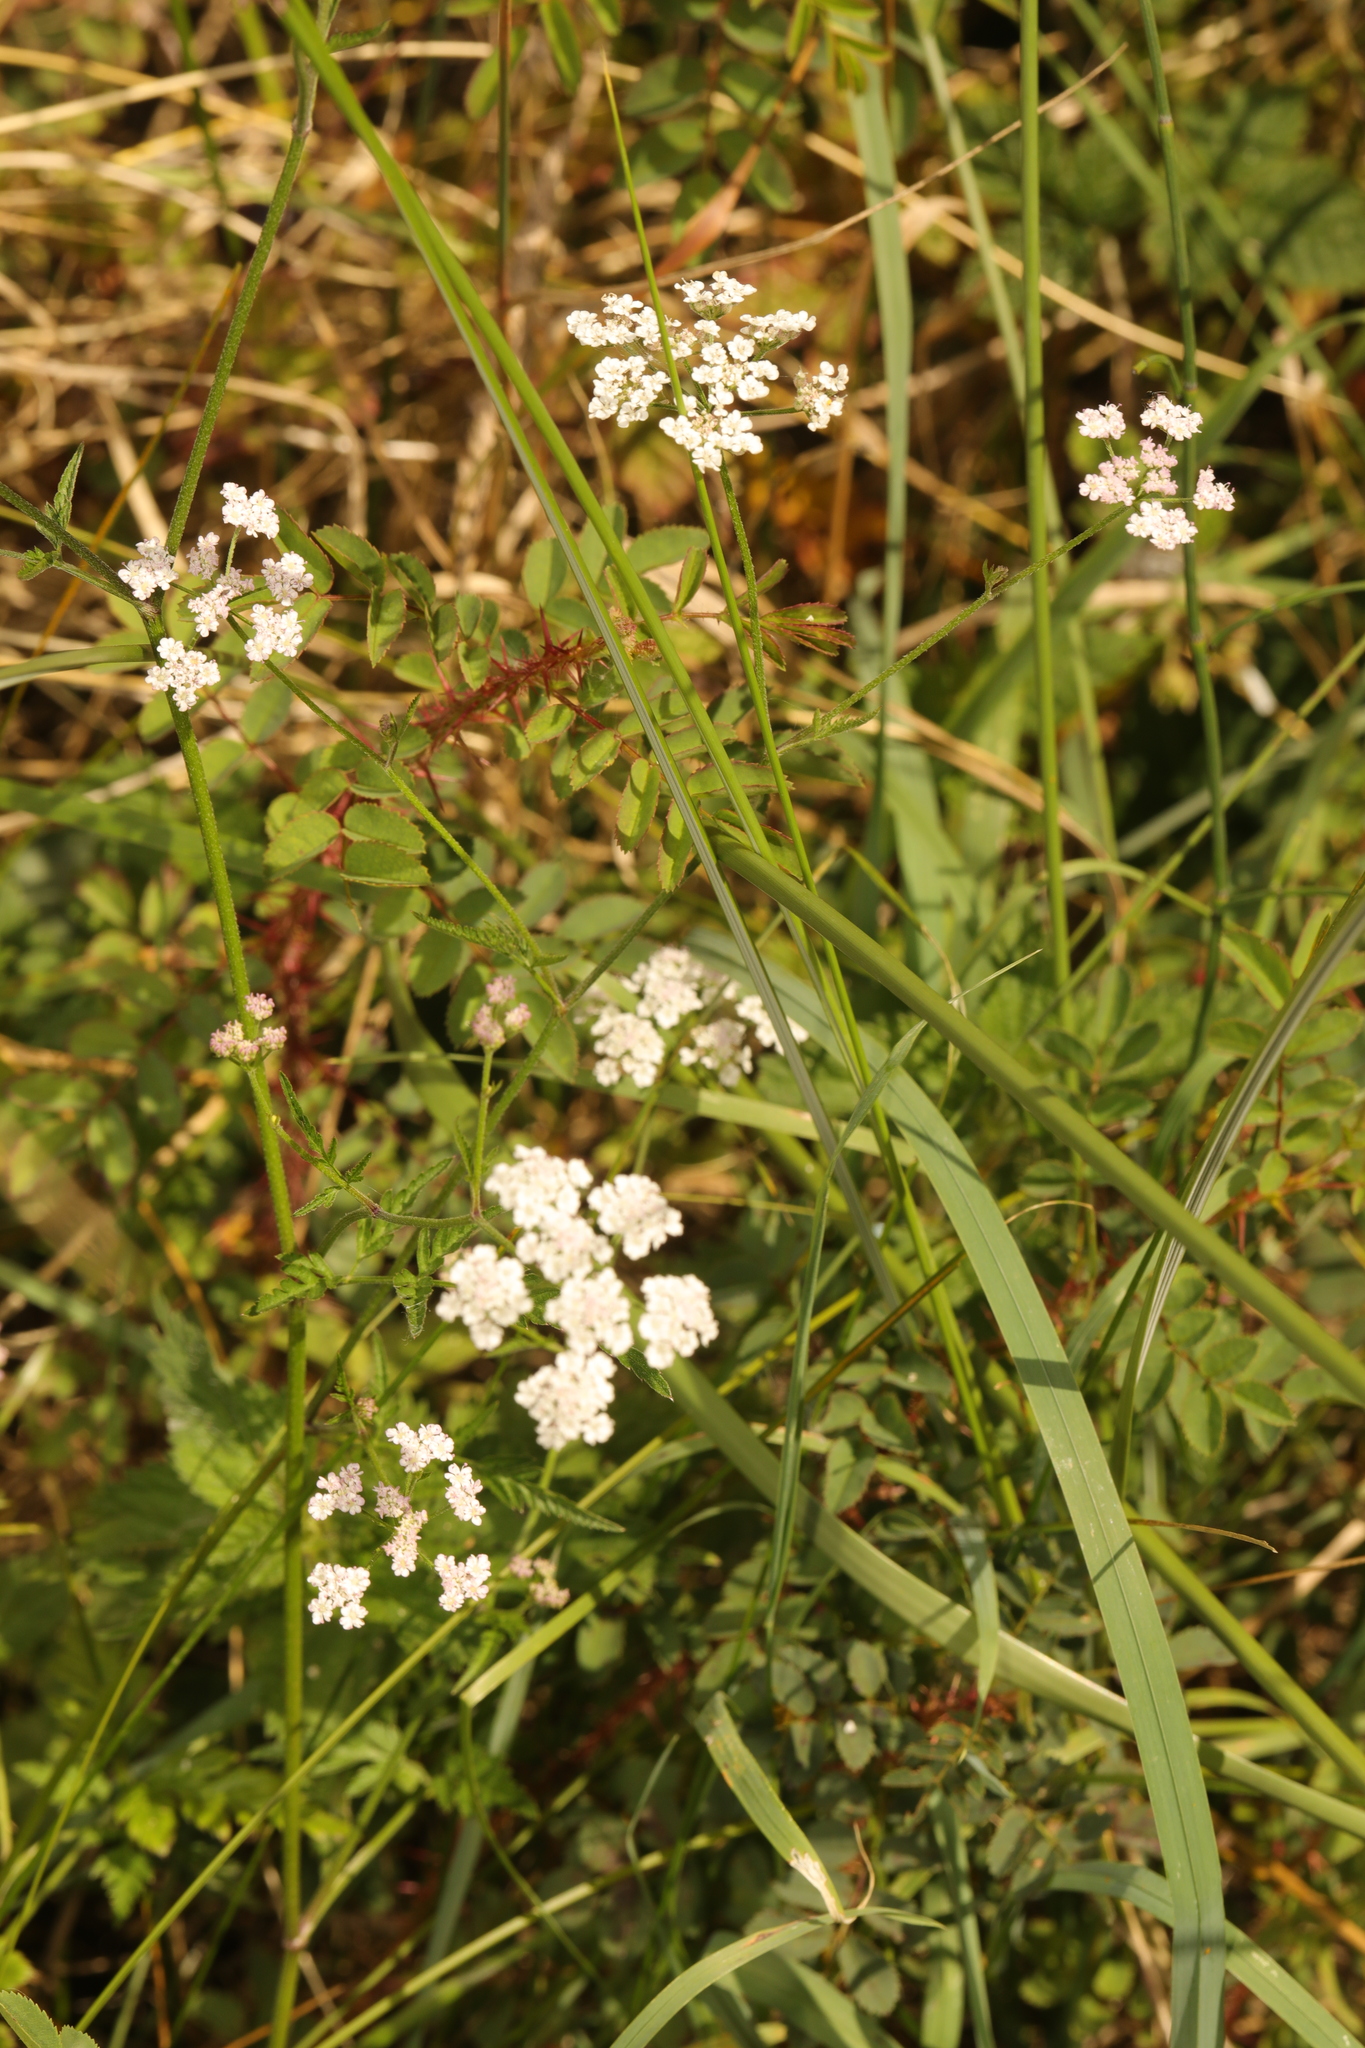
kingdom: Plantae
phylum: Tracheophyta
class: Magnoliopsida
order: Apiales
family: Apiaceae
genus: Torilis
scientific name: Torilis japonica
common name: Upright hedge-parsley
